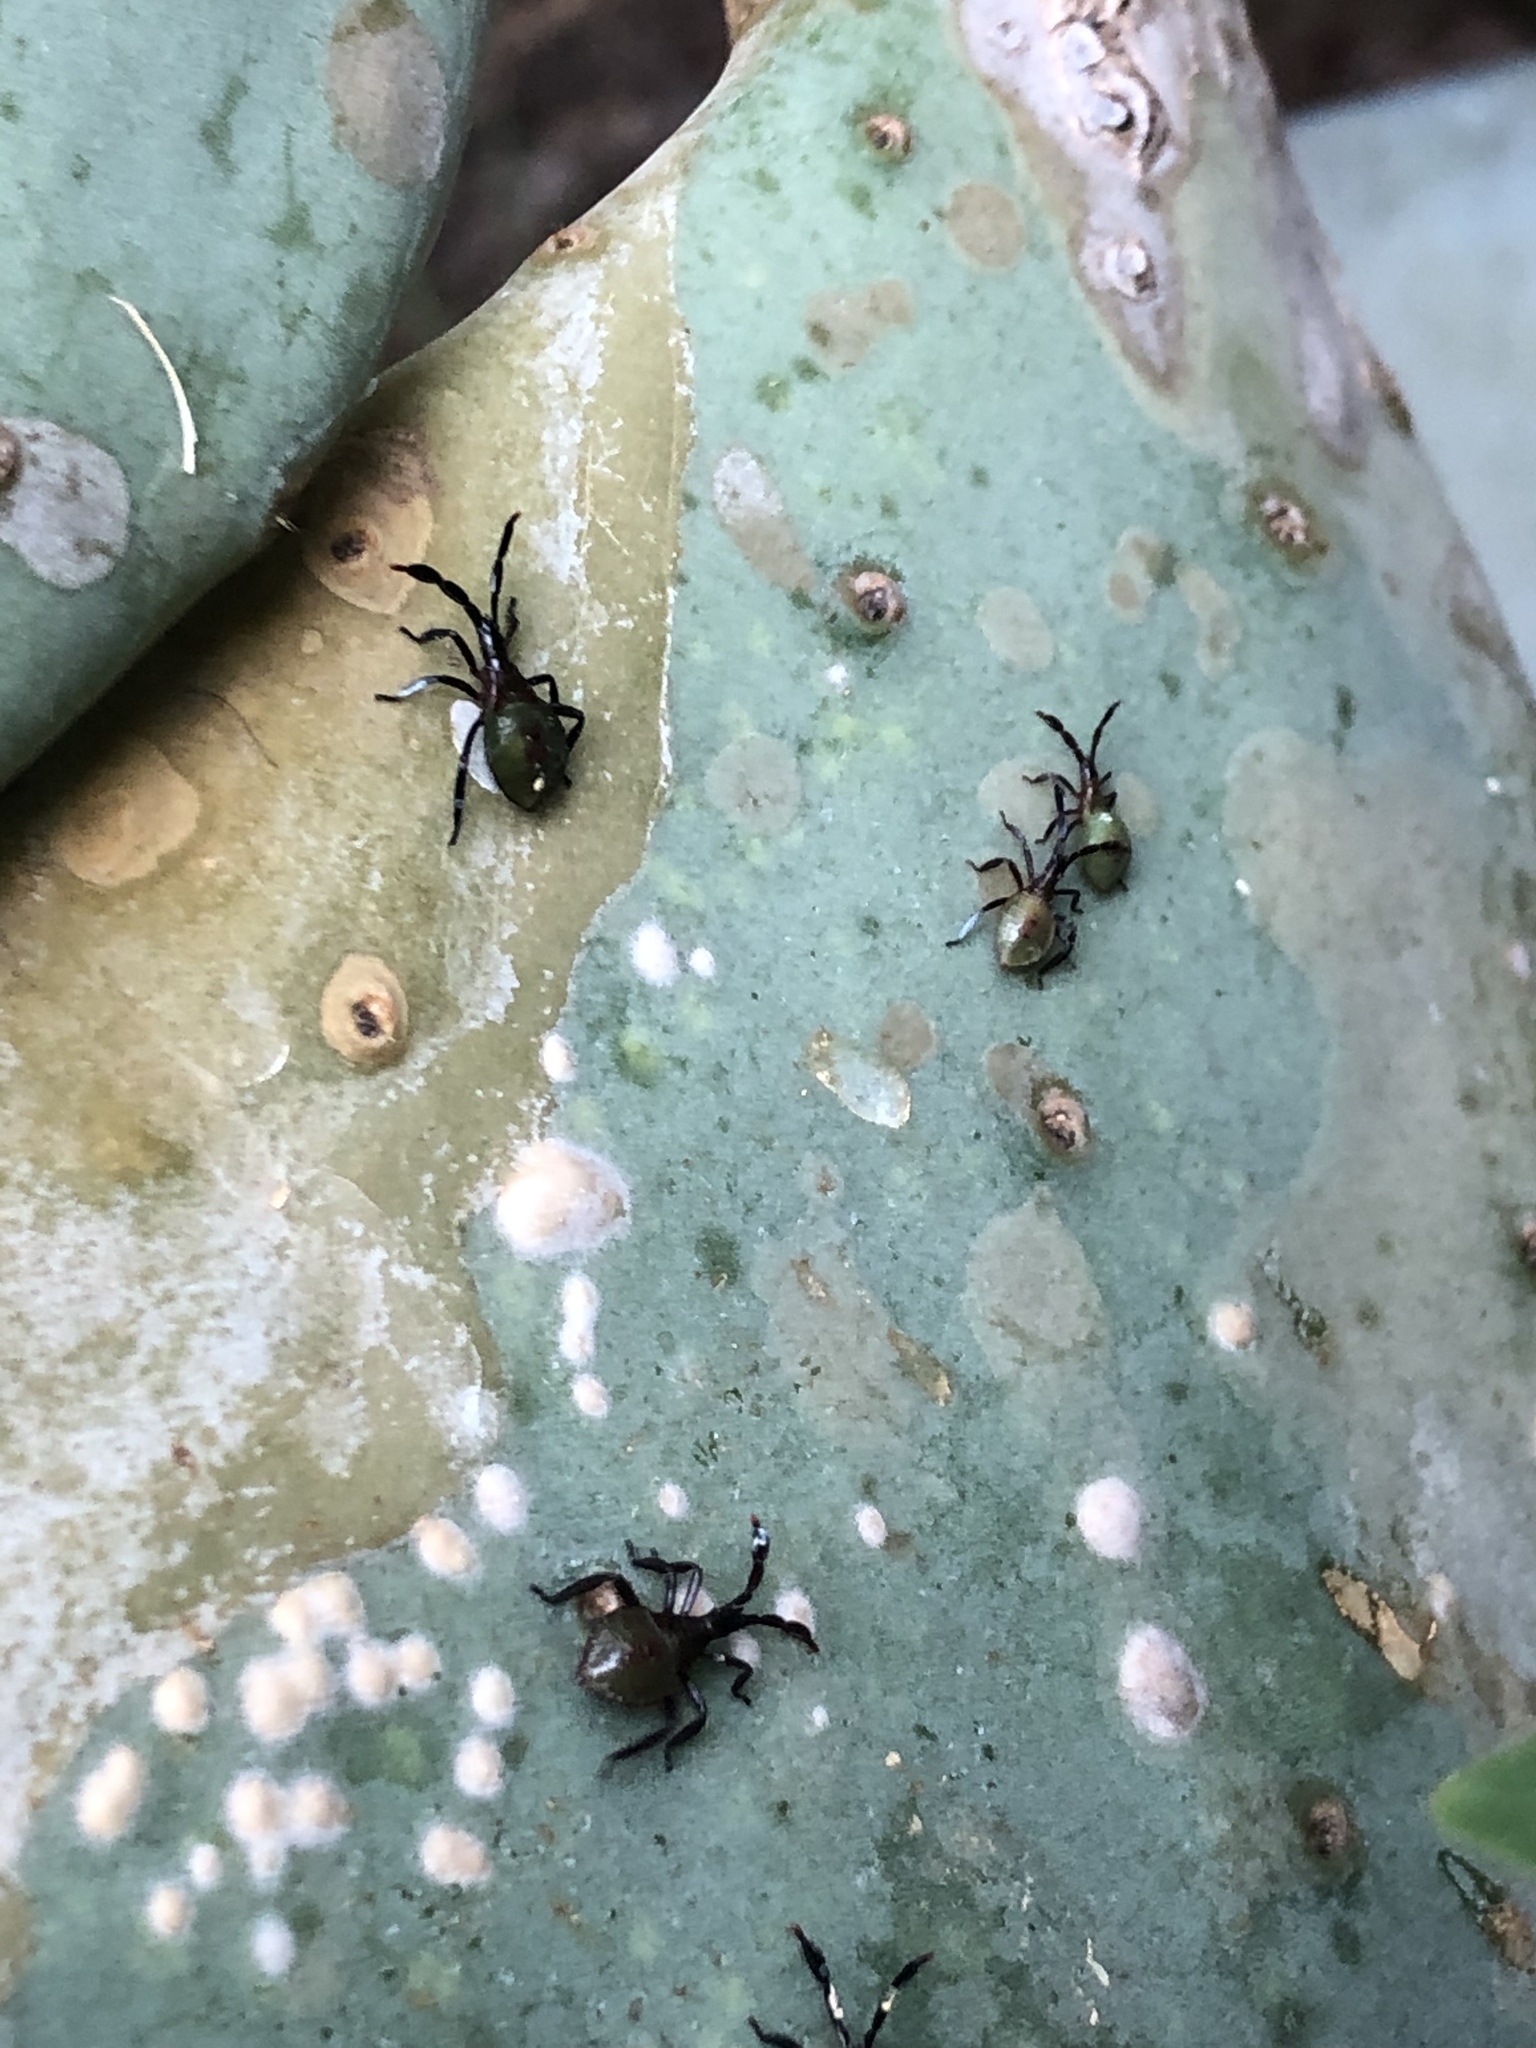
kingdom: Animalia
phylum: Arthropoda
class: Insecta
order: Hemiptera
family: Coreidae
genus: Chelinidea
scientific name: Chelinidea vittiger
